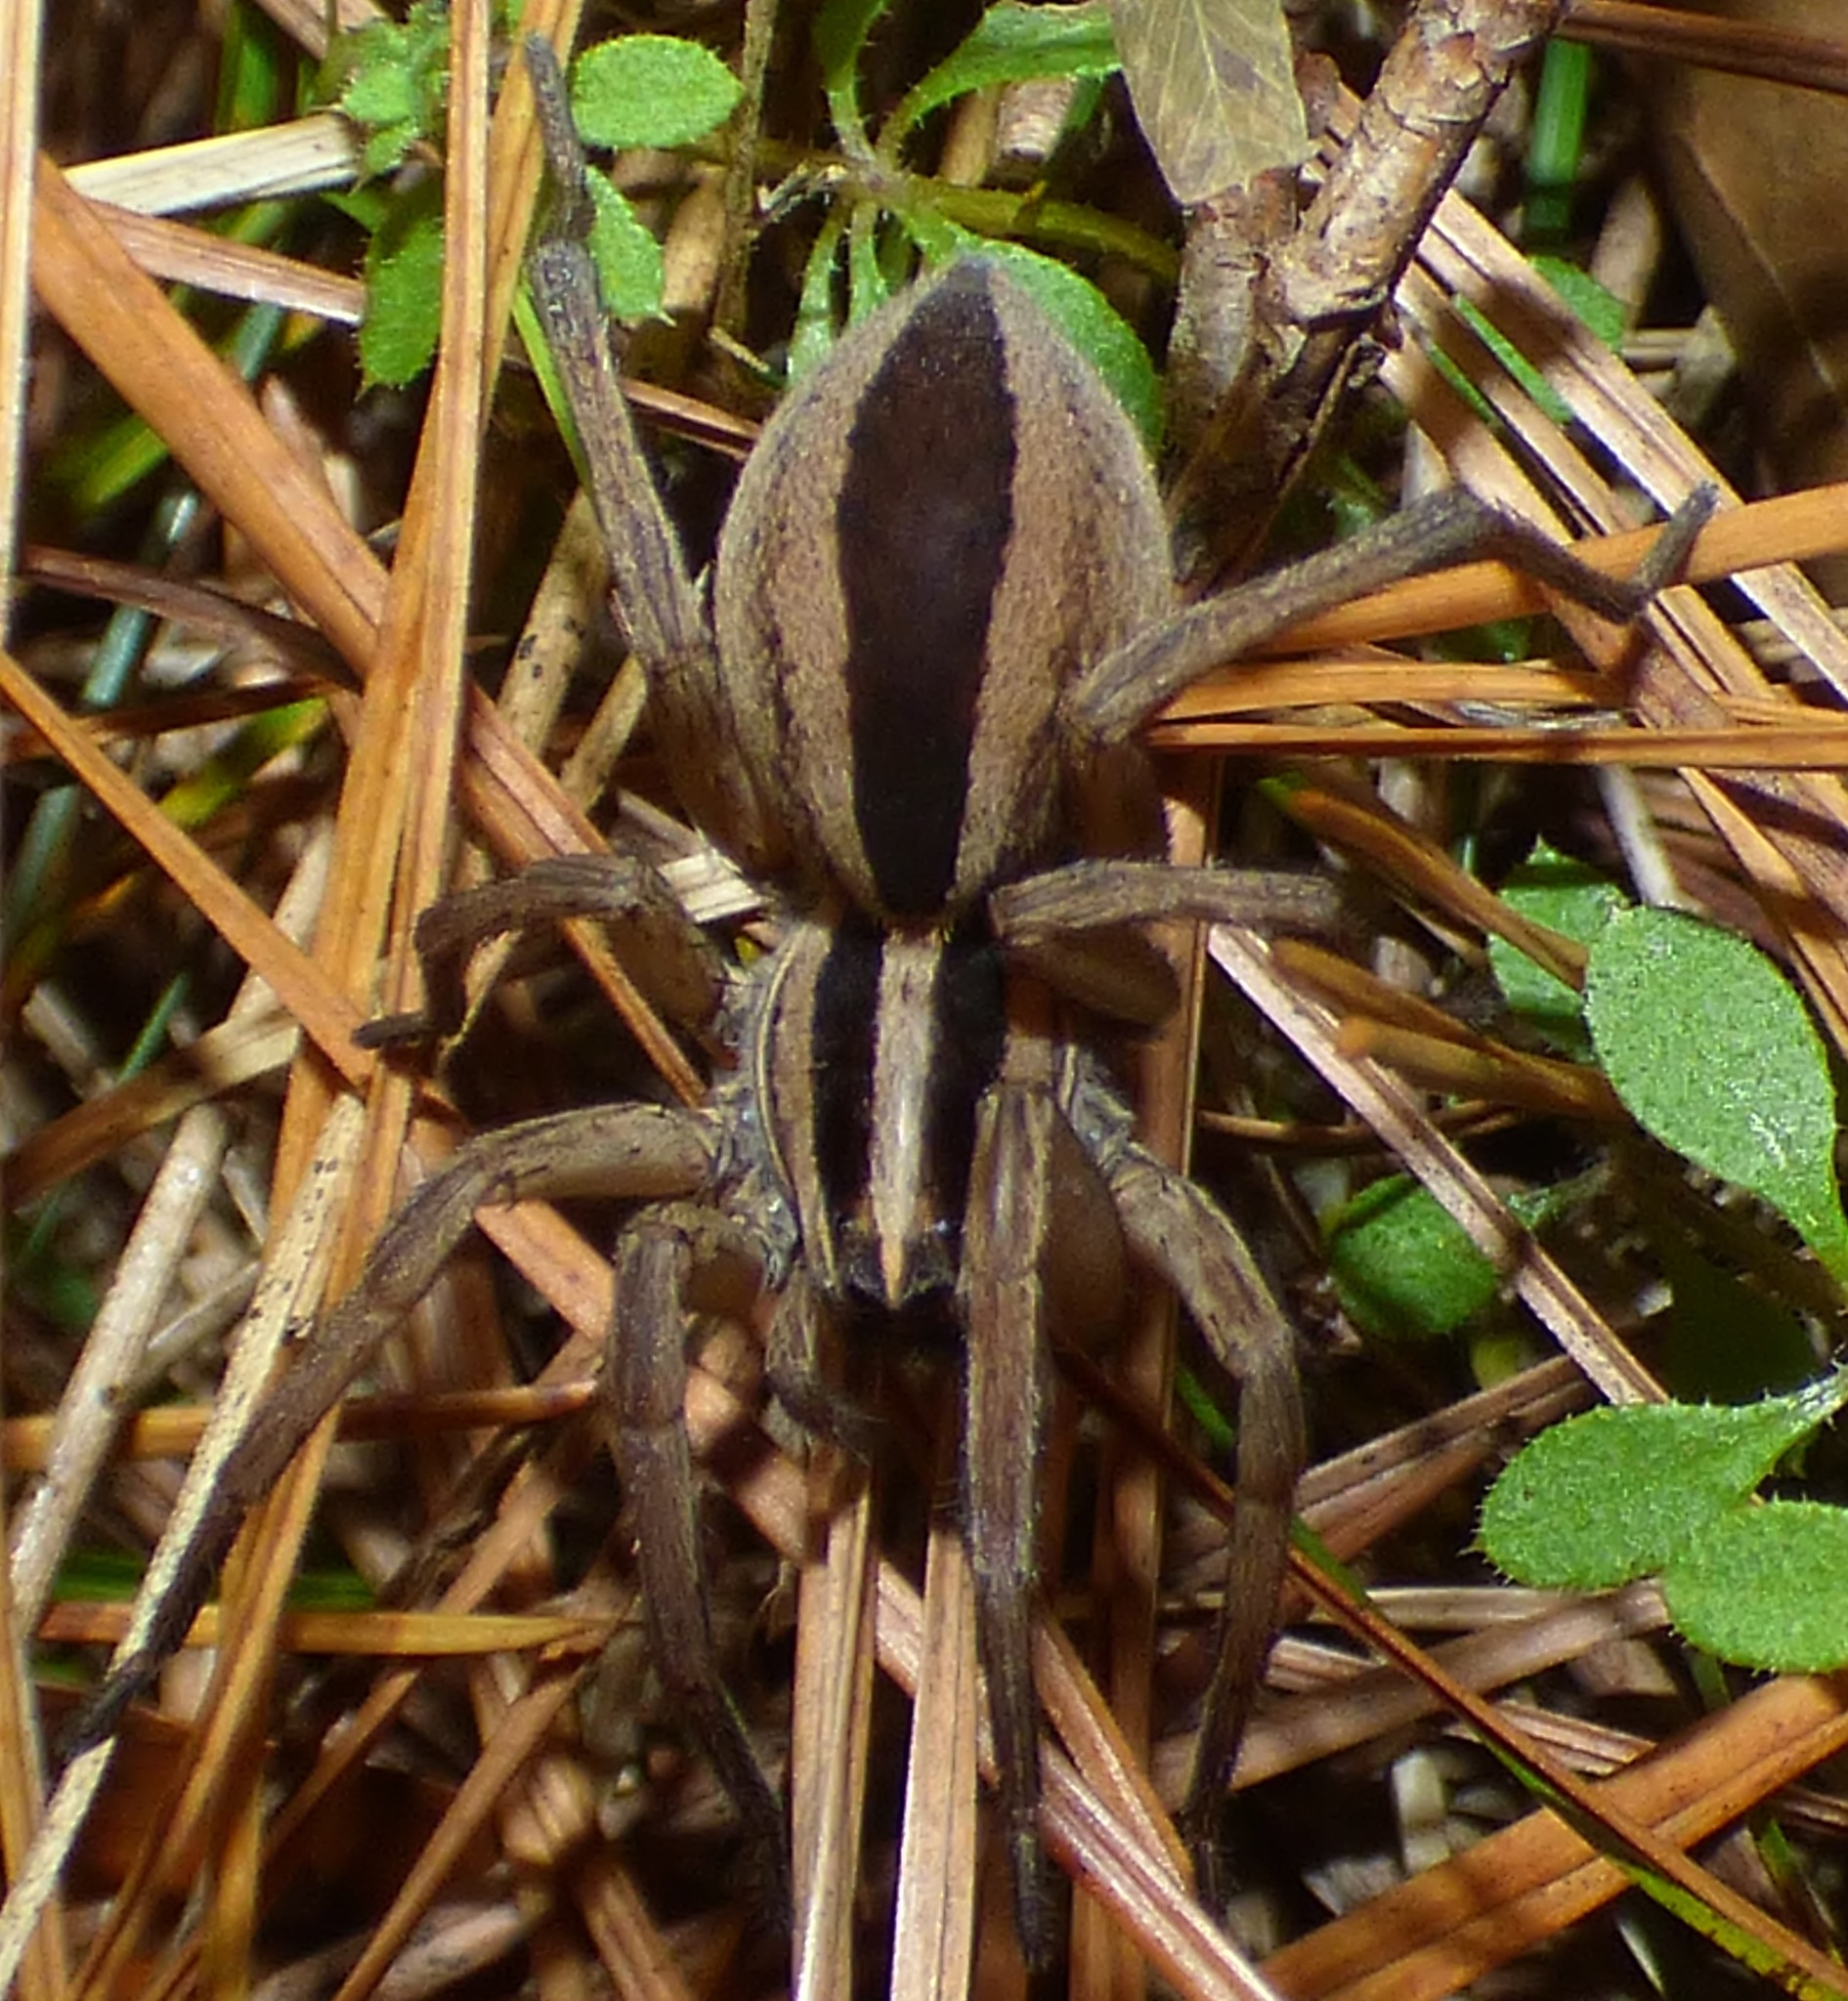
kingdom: Animalia
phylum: Arthropoda
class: Arachnida
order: Araneae
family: Lycosidae
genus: Rabidosa
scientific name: Rabidosa punctulata
